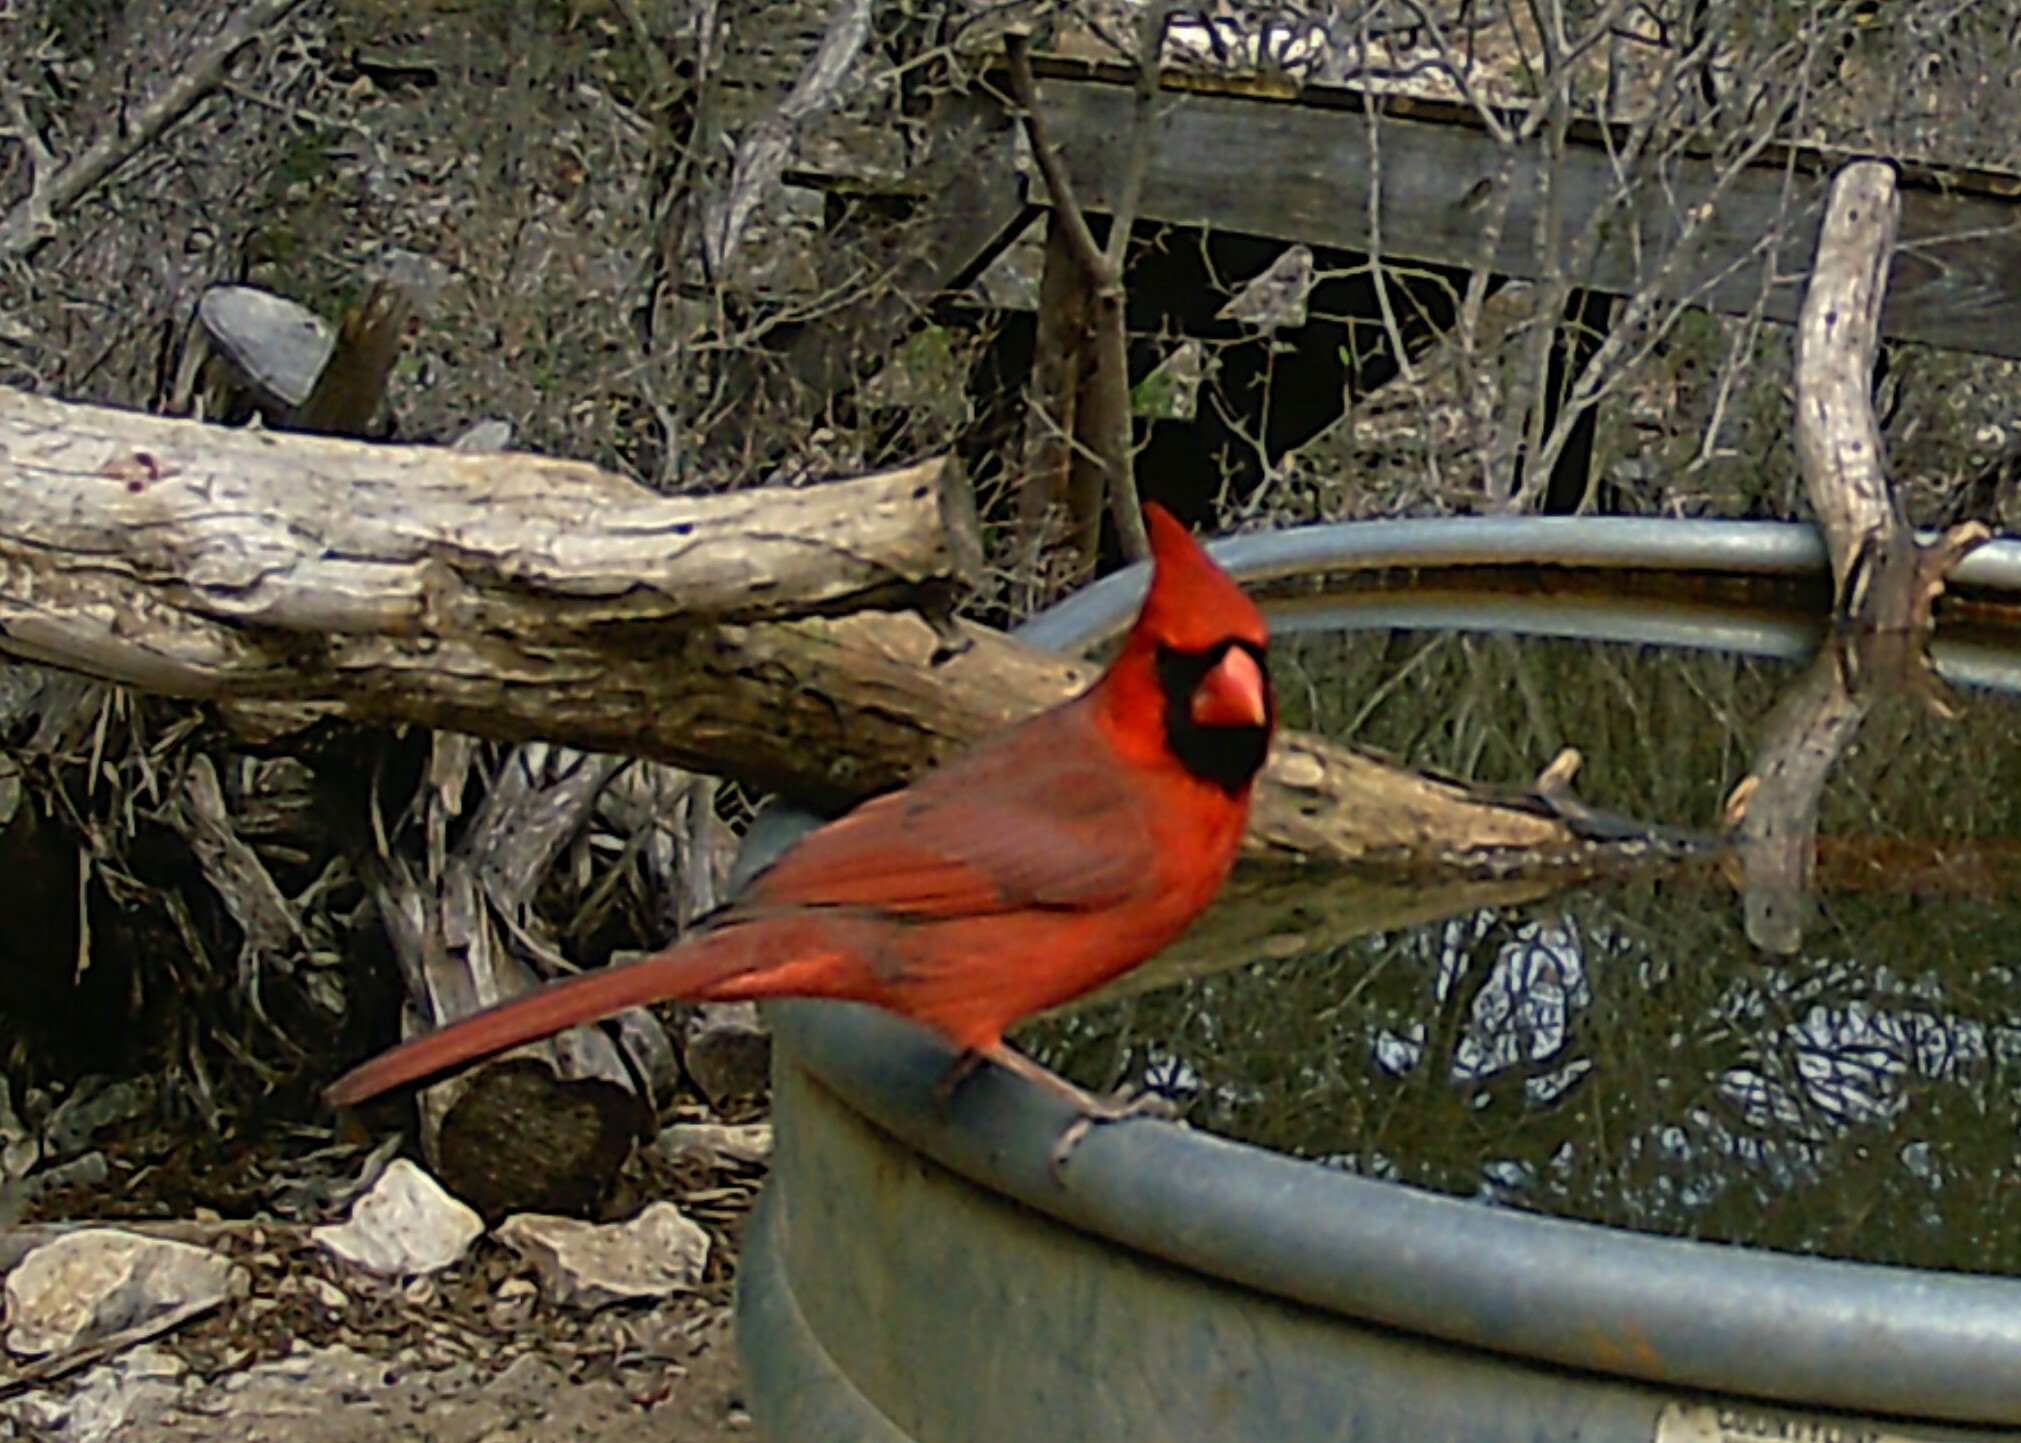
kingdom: Animalia
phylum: Chordata
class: Aves
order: Passeriformes
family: Cardinalidae
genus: Cardinalis
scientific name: Cardinalis cardinalis
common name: Northern cardinal
